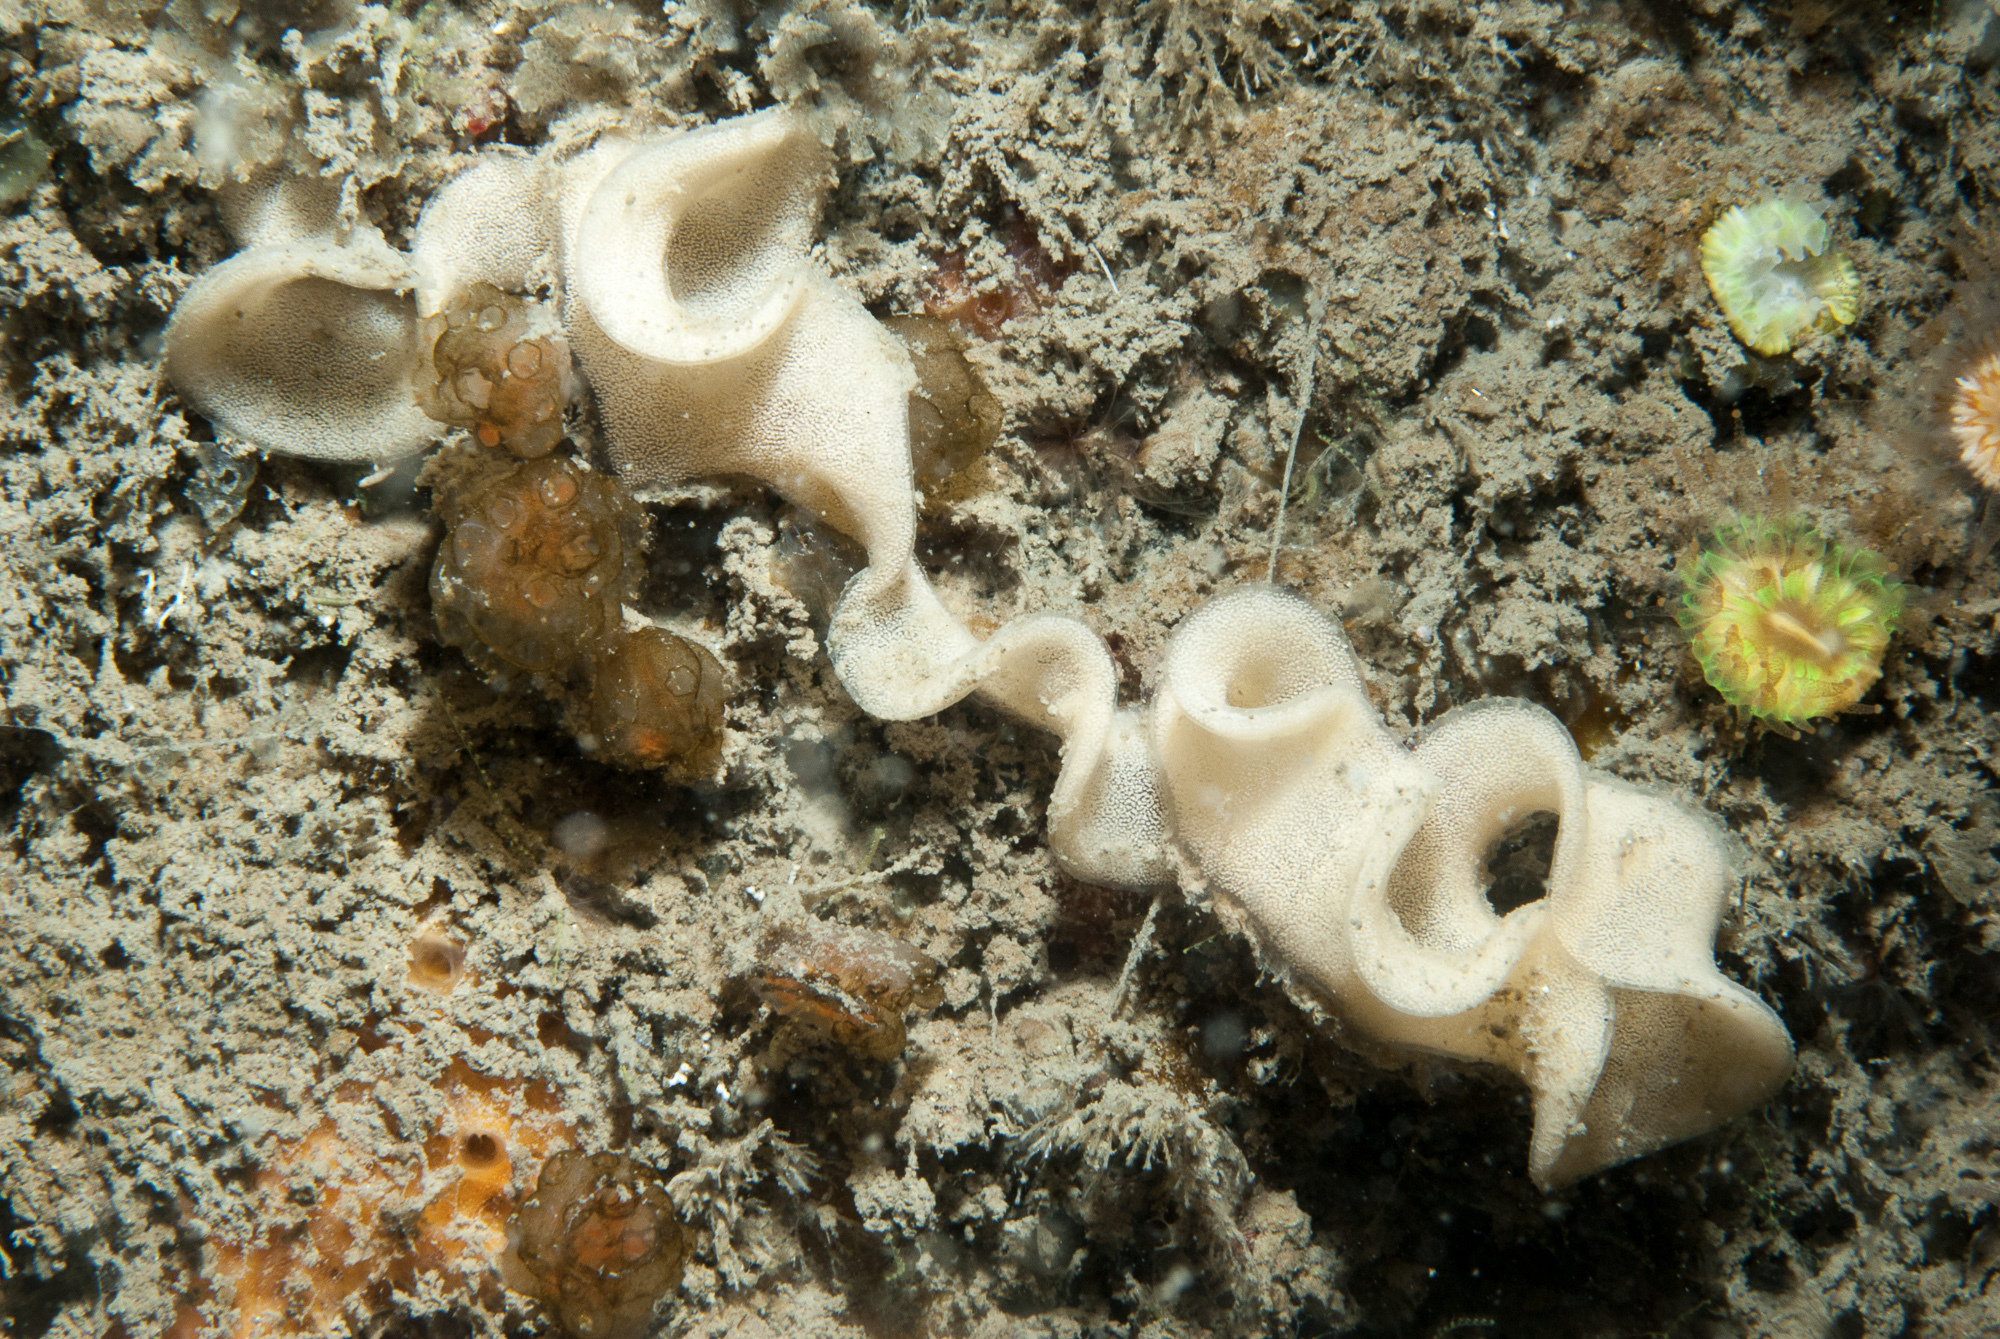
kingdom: Animalia
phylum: Mollusca
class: Gastropoda
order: Nudibranchia
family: Goniodorididae
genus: Okenia
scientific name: Okenia elegans
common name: Yellow skirt slug
